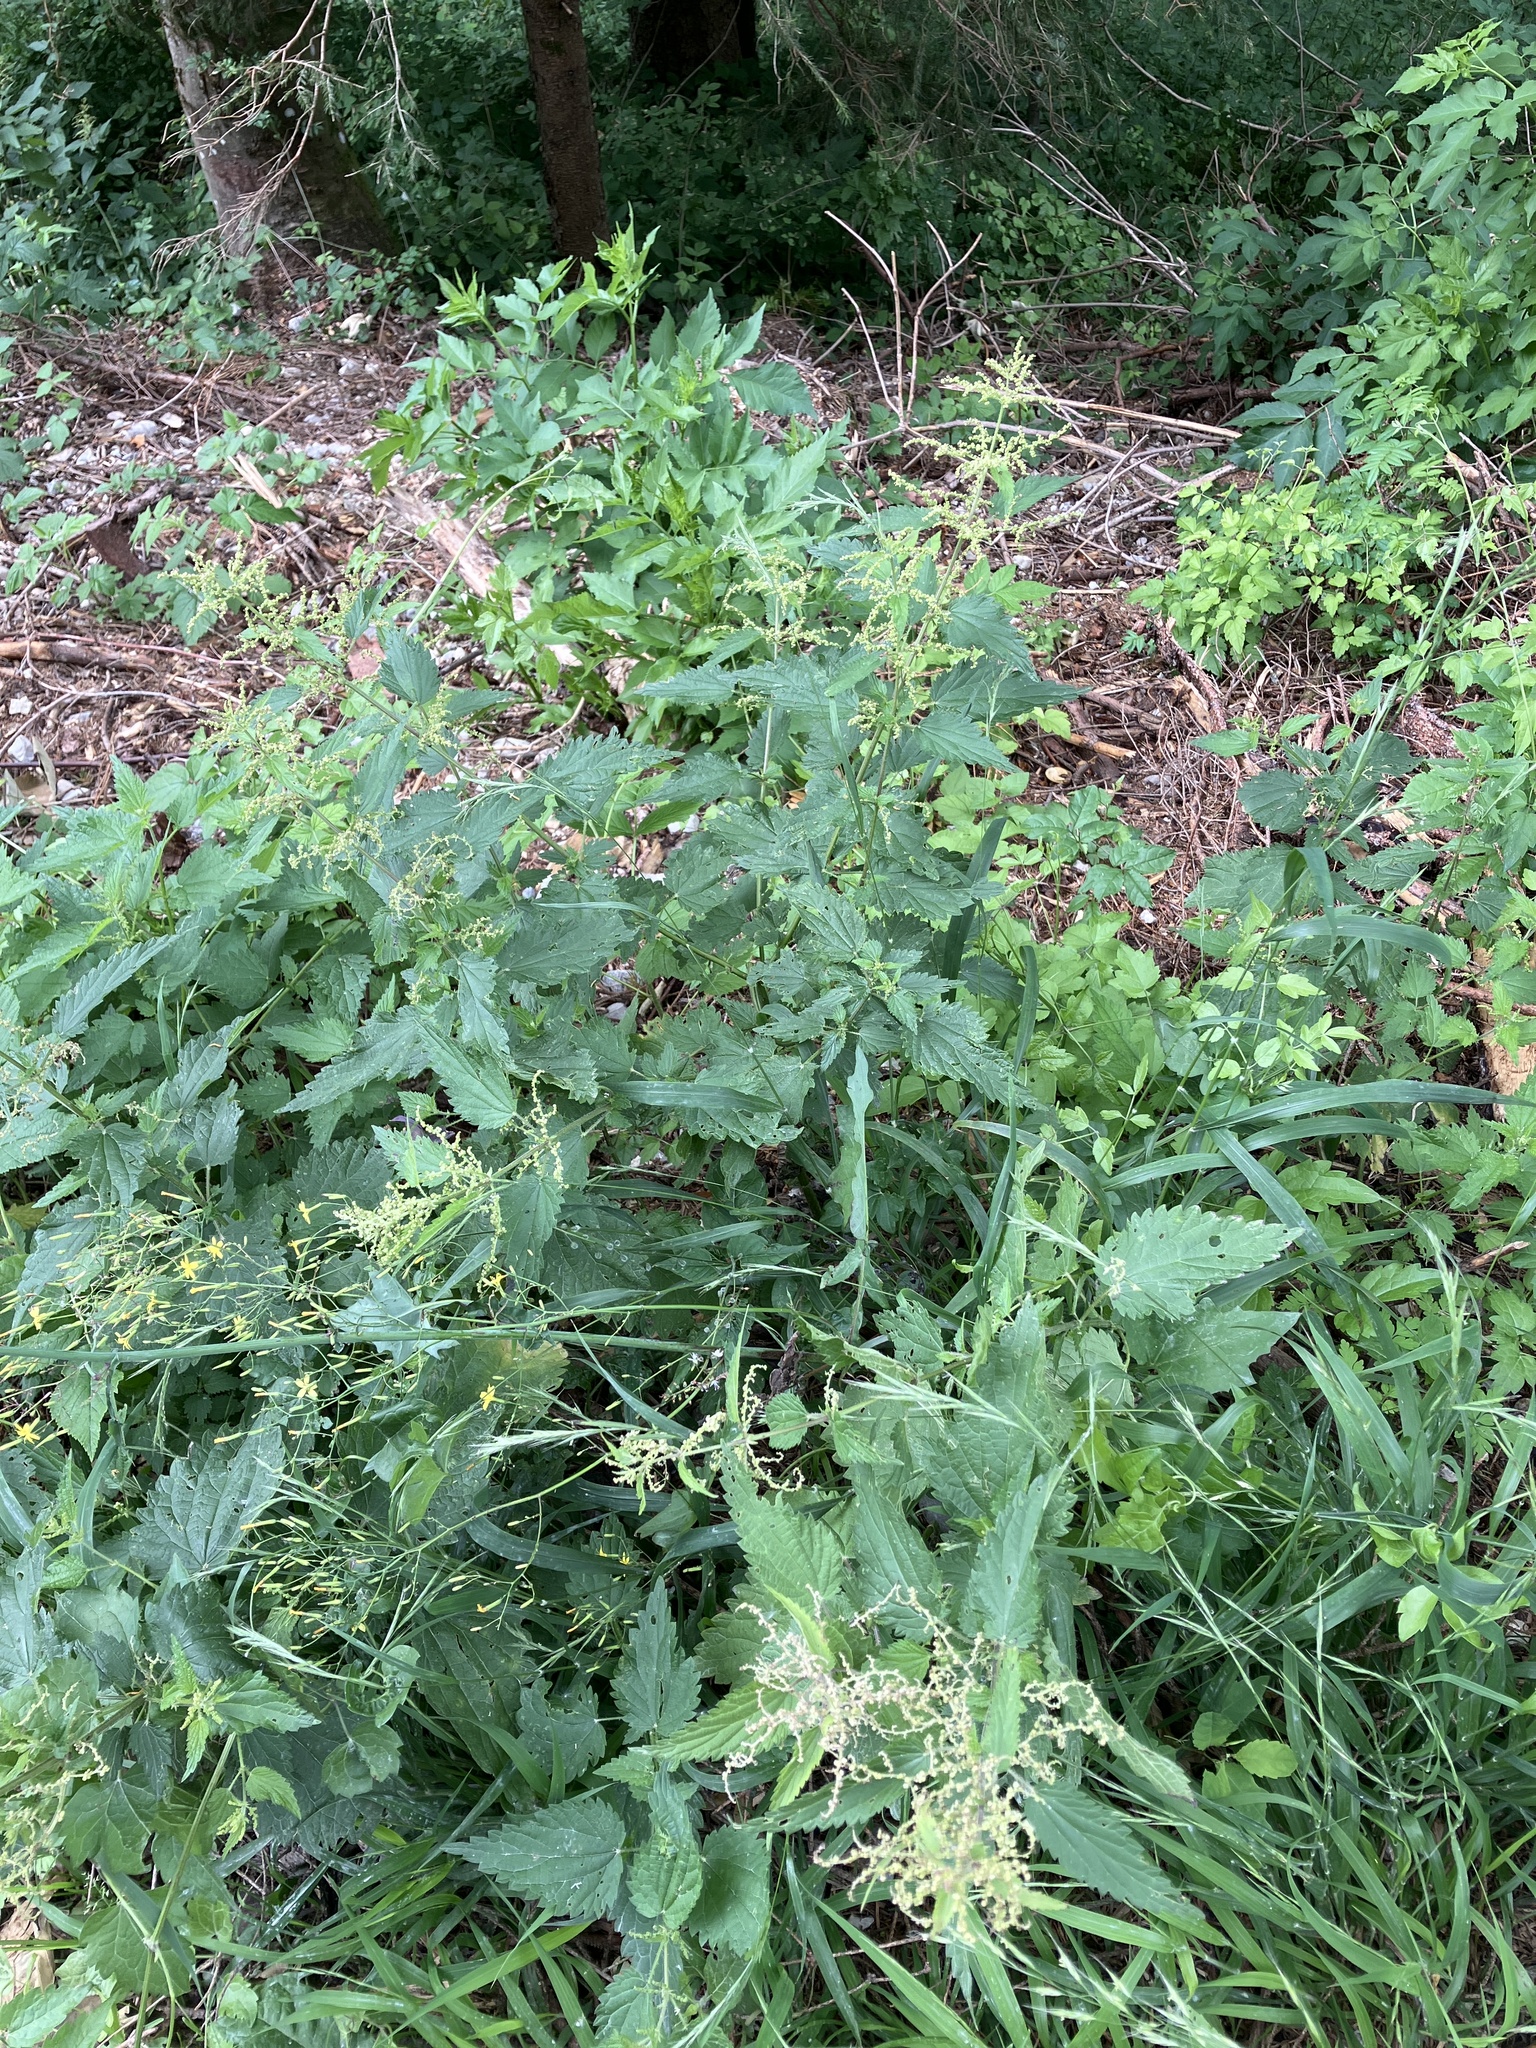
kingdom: Plantae
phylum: Tracheophyta
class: Magnoliopsida
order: Rosales
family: Urticaceae
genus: Urtica
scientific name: Urtica dioica
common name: Common nettle
